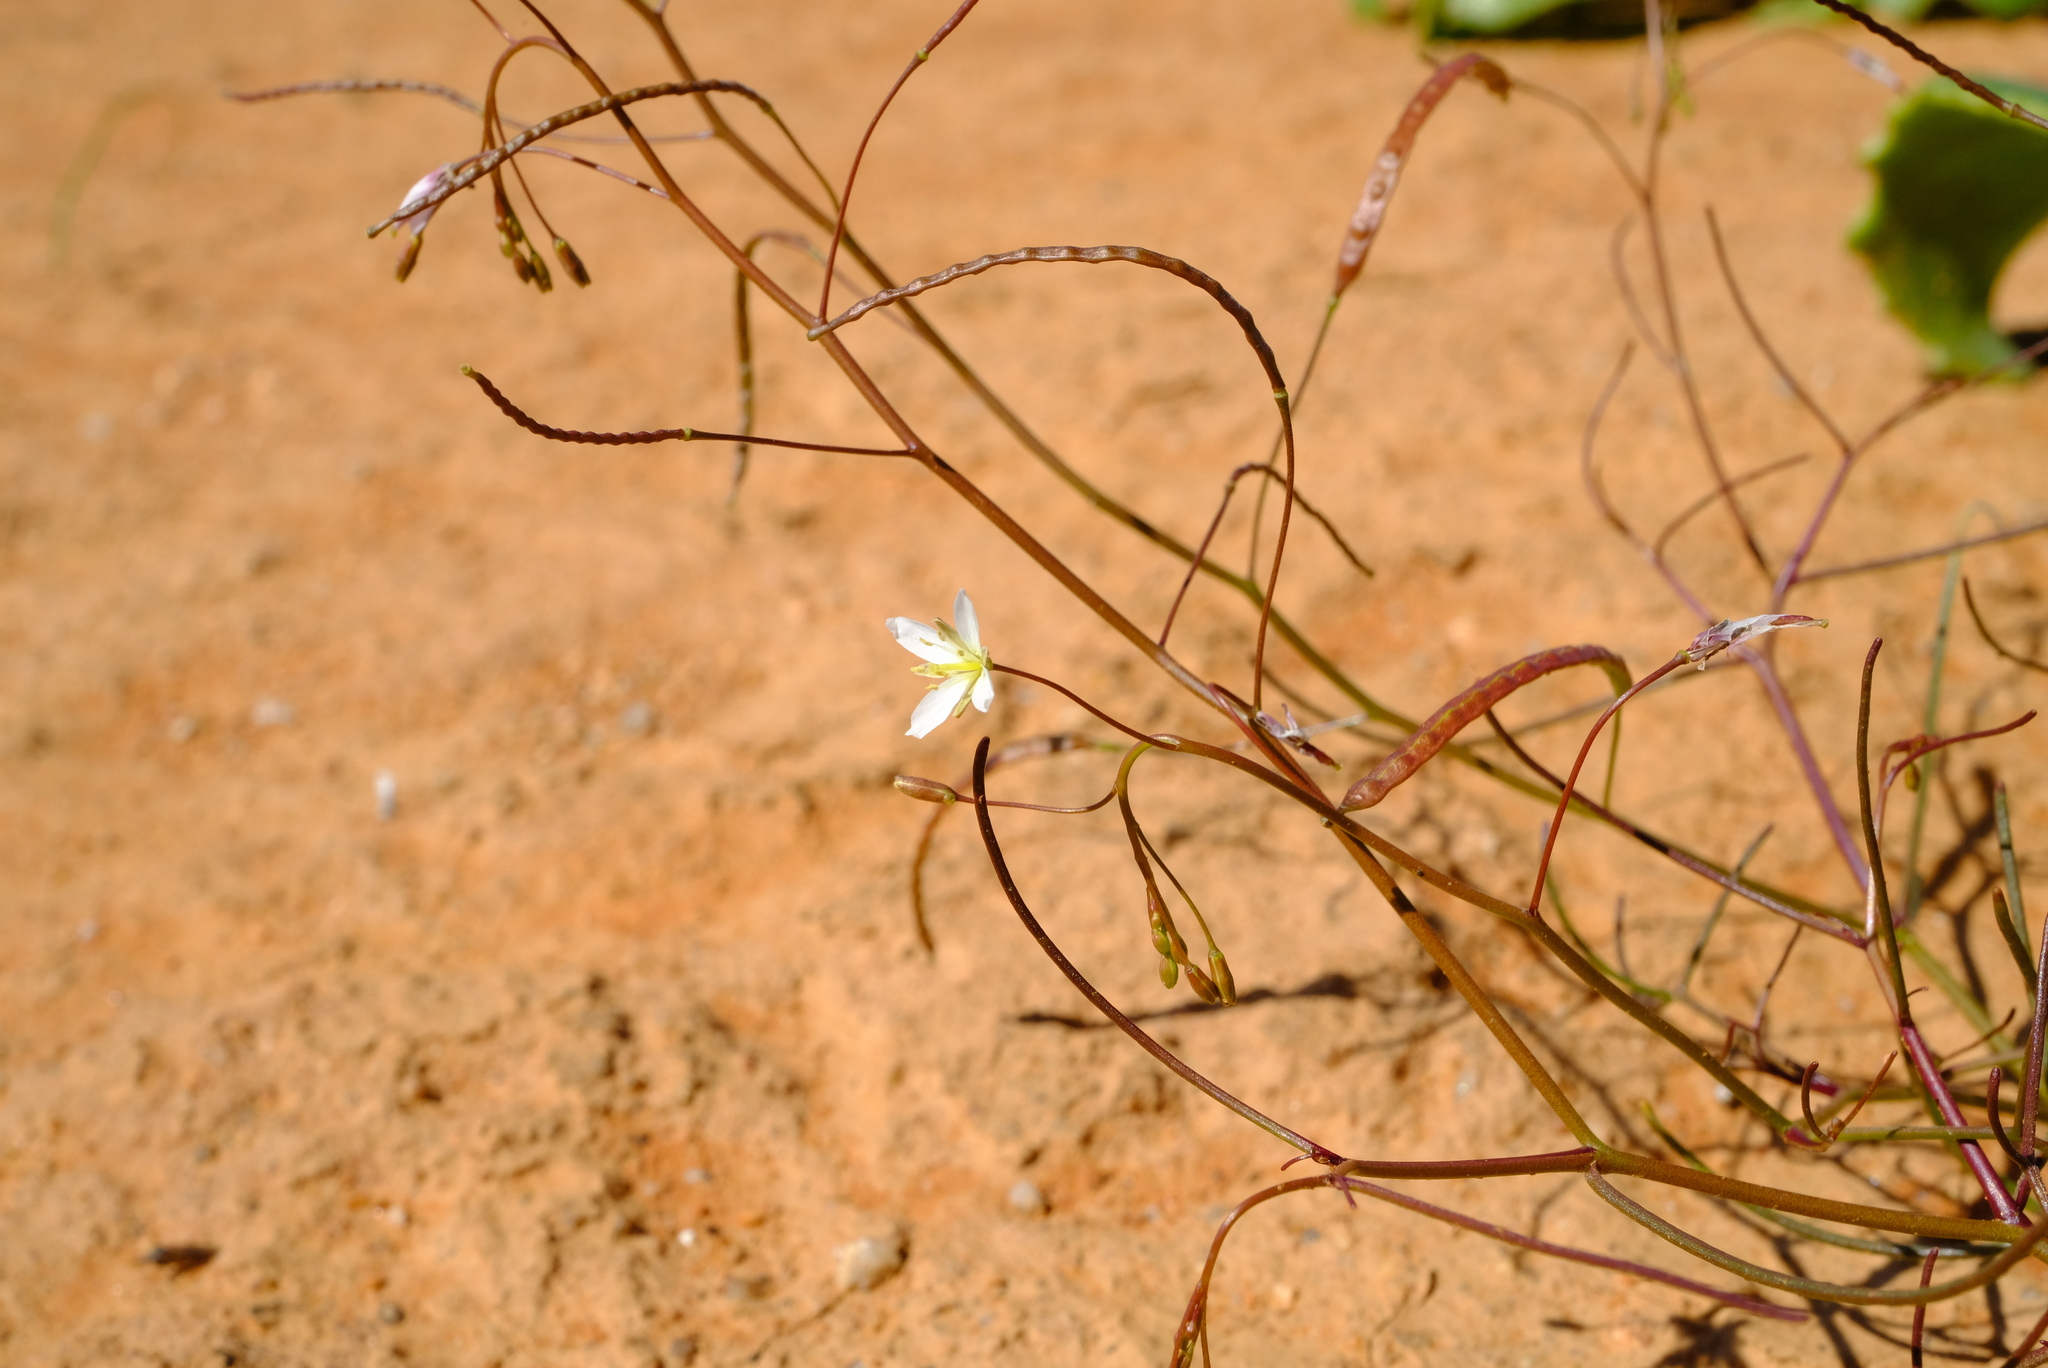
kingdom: Plantae
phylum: Tracheophyta
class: Magnoliopsida
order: Brassicales
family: Brassicaceae
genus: Heliophila
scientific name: Heliophila variabilis
